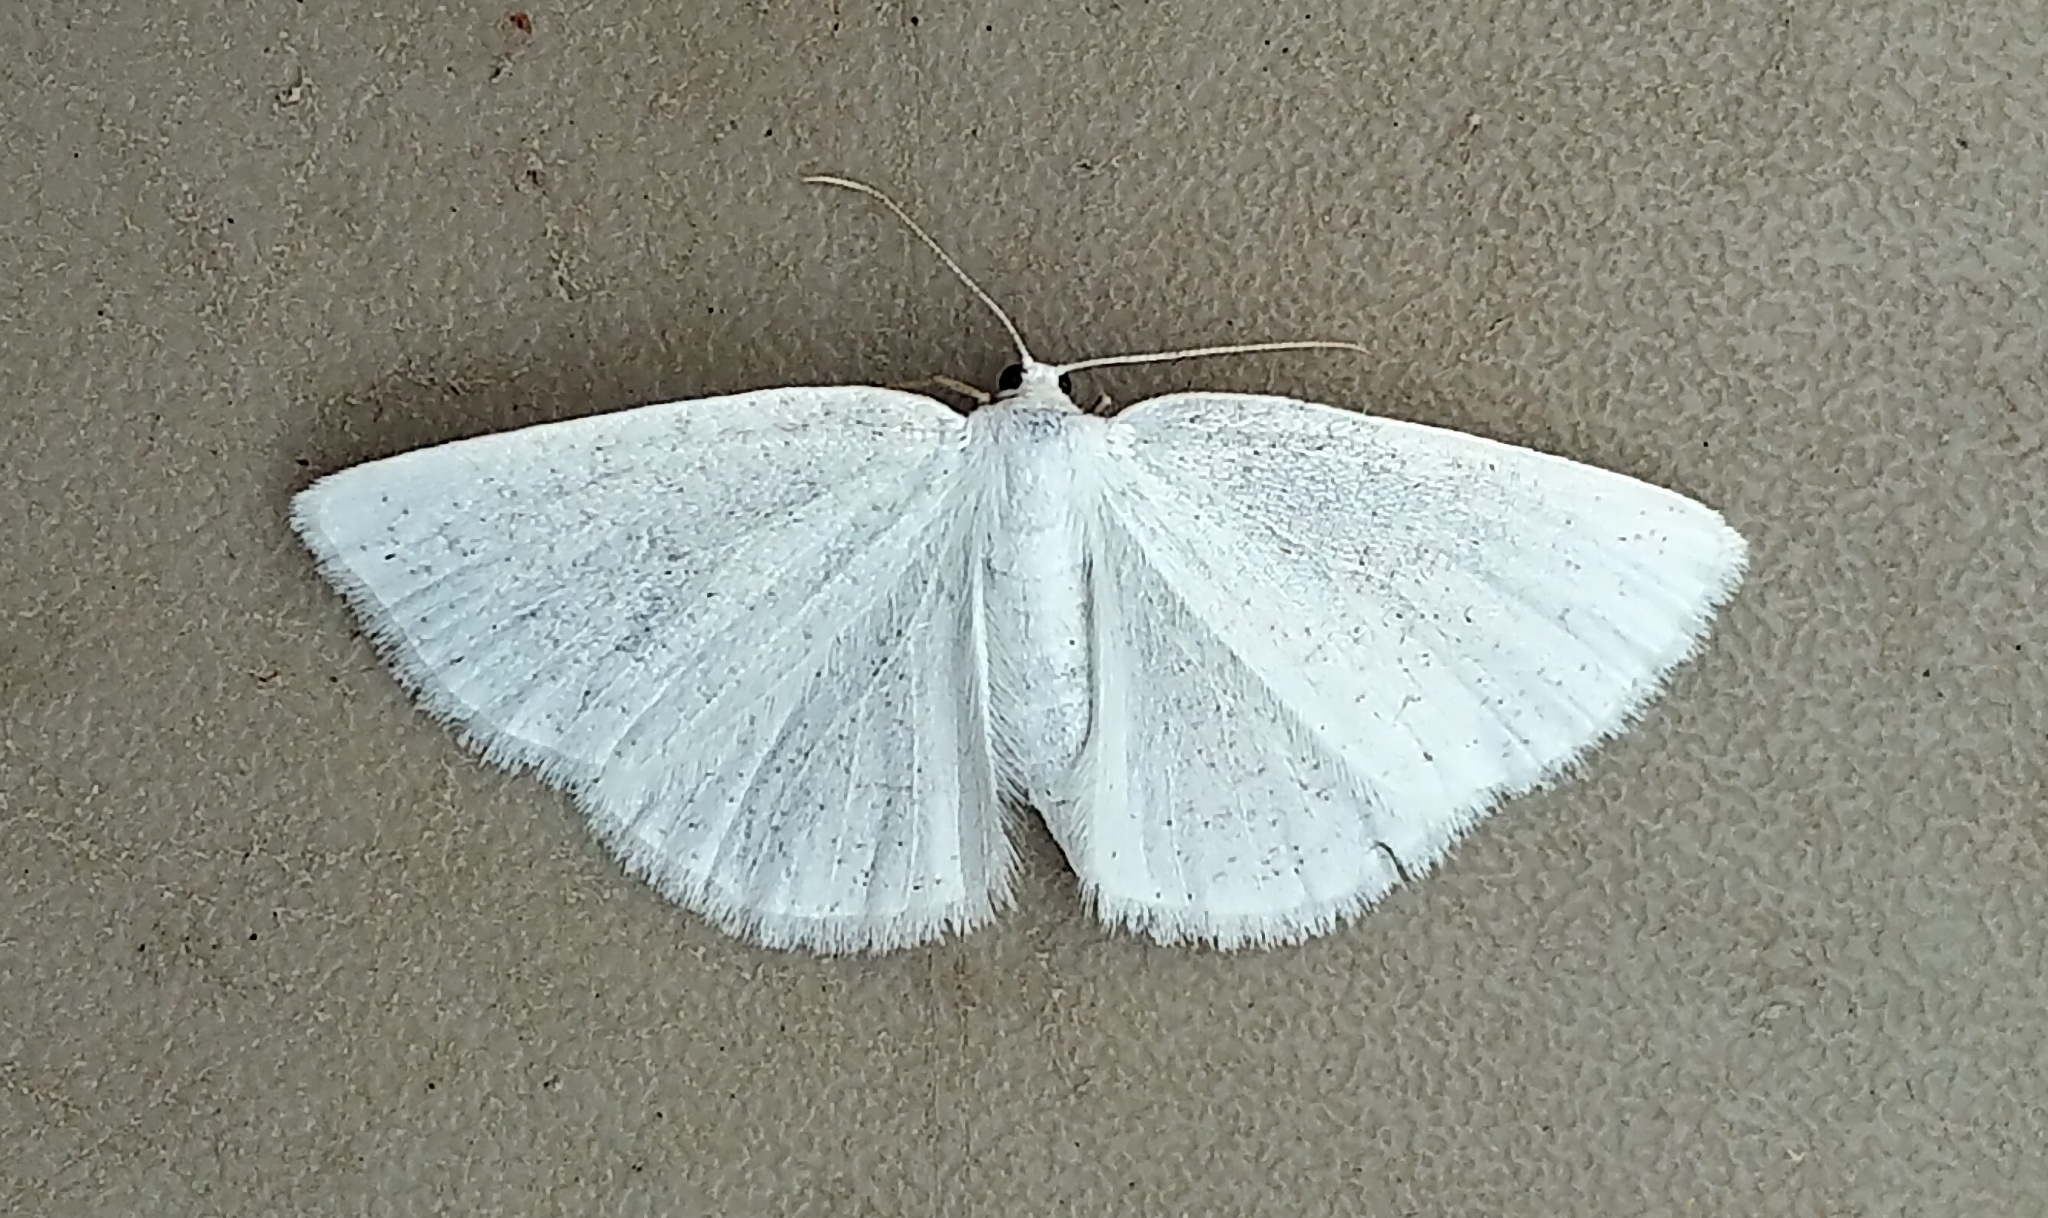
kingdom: Animalia
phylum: Arthropoda
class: Insecta
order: Lepidoptera
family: Geometridae
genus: Cabera
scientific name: Cabera variolaria
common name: Pink-striped willow spanworm
